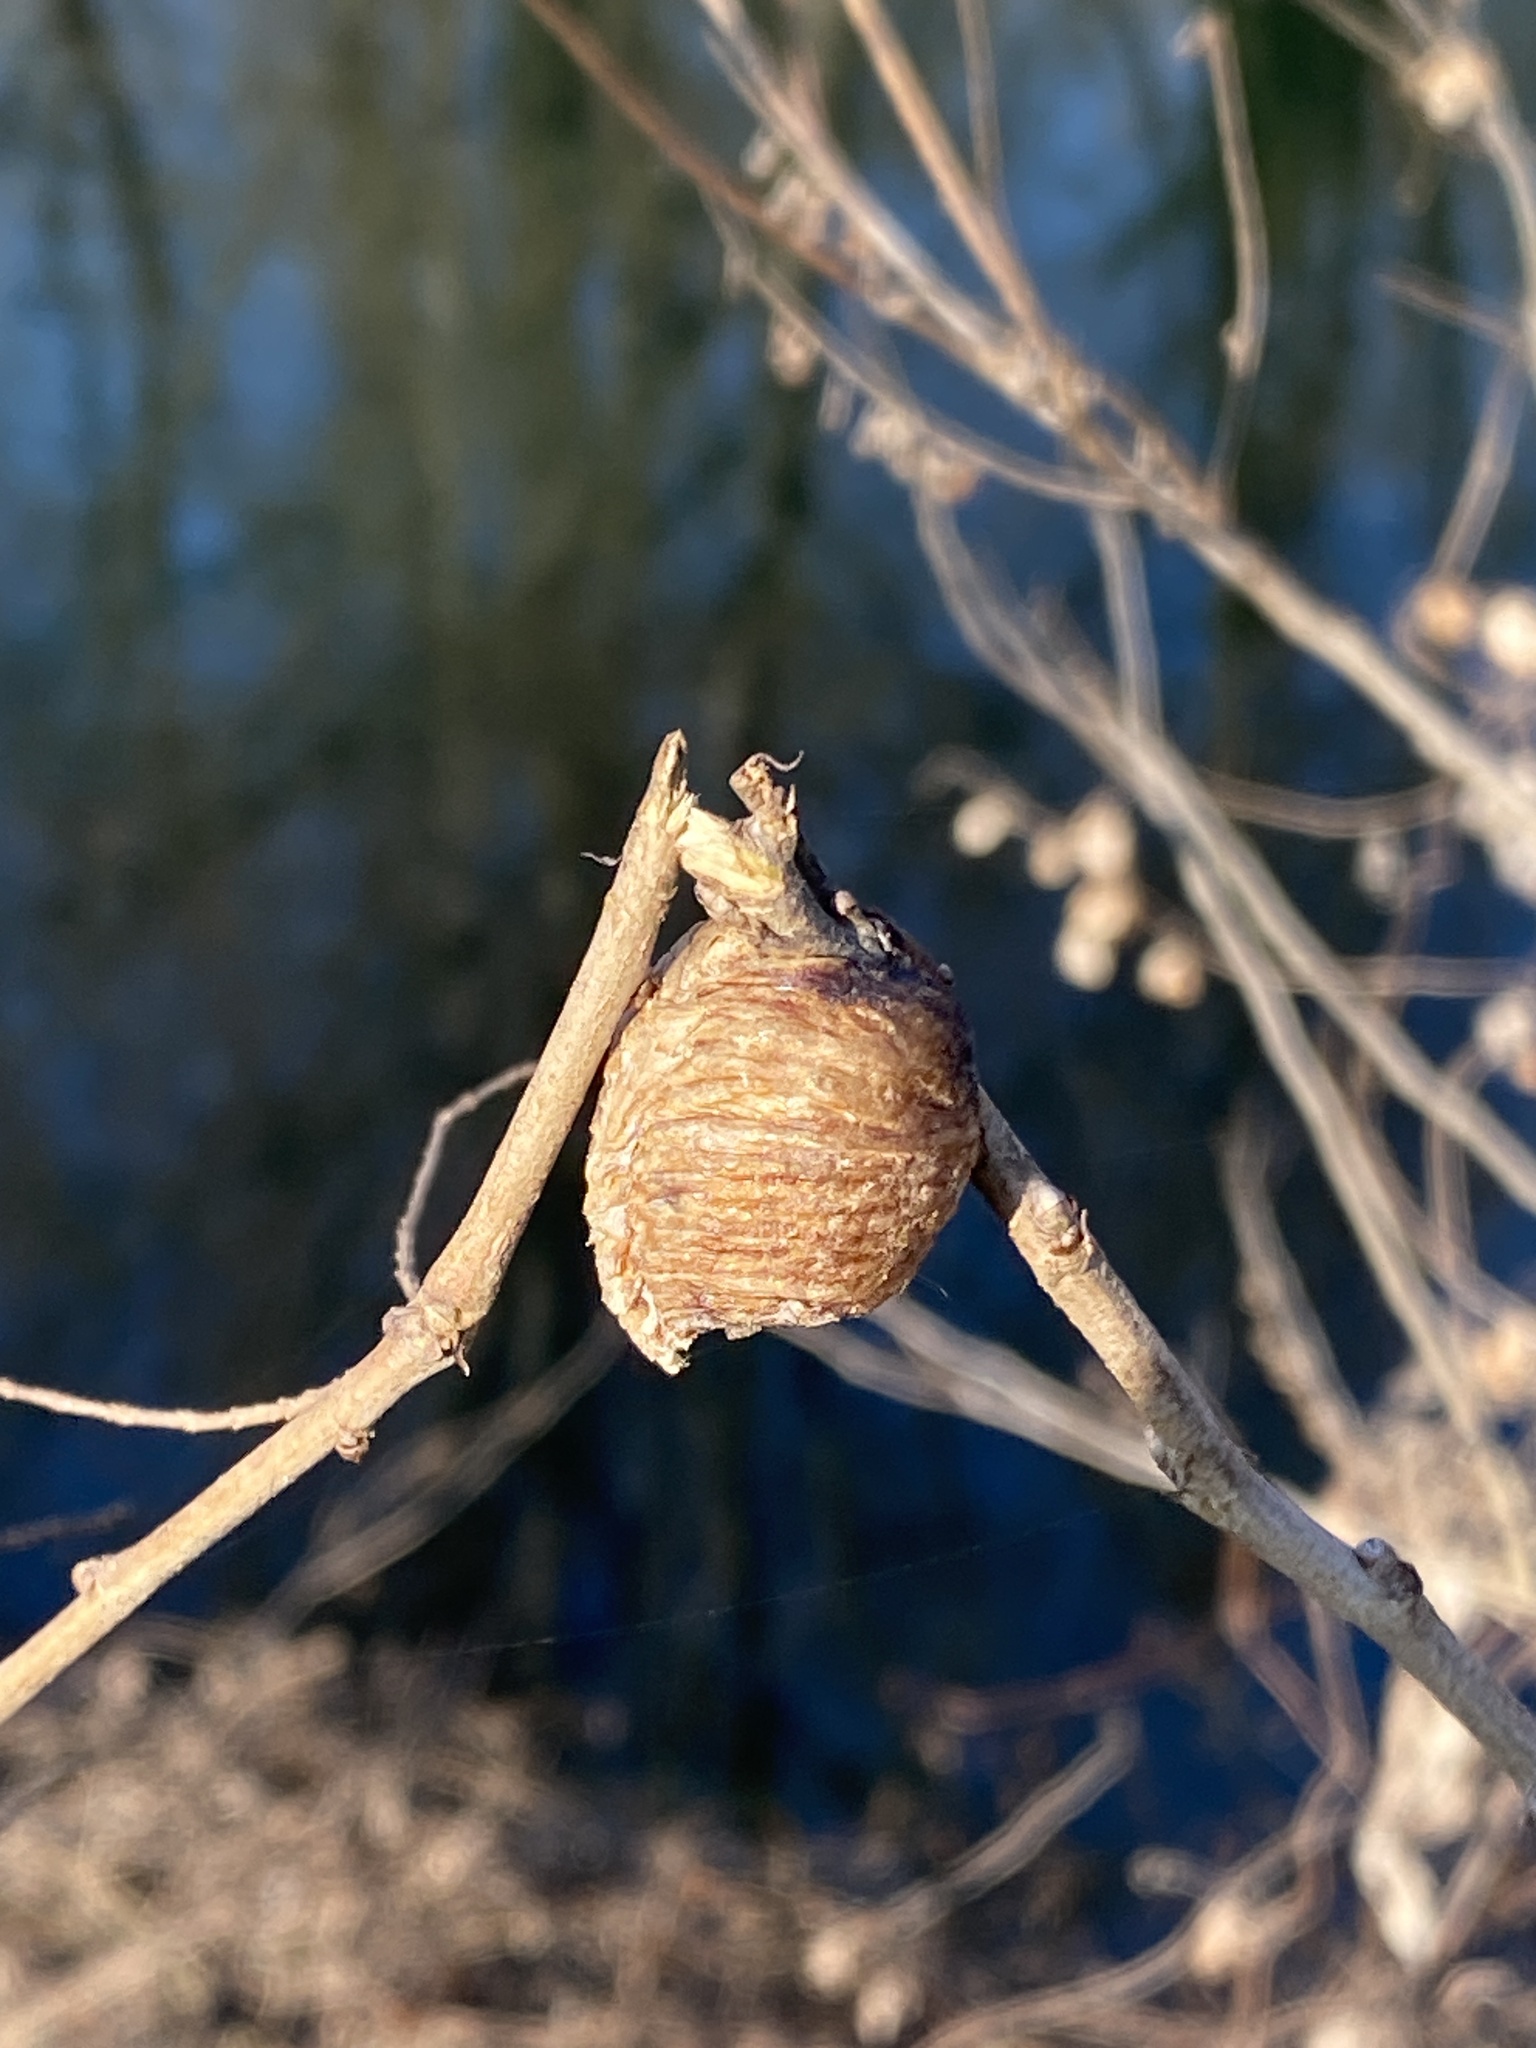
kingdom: Animalia
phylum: Arthropoda
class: Insecta
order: Mantodea
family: Mantidae
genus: Hierodula
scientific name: Hierodula transcaucasica
